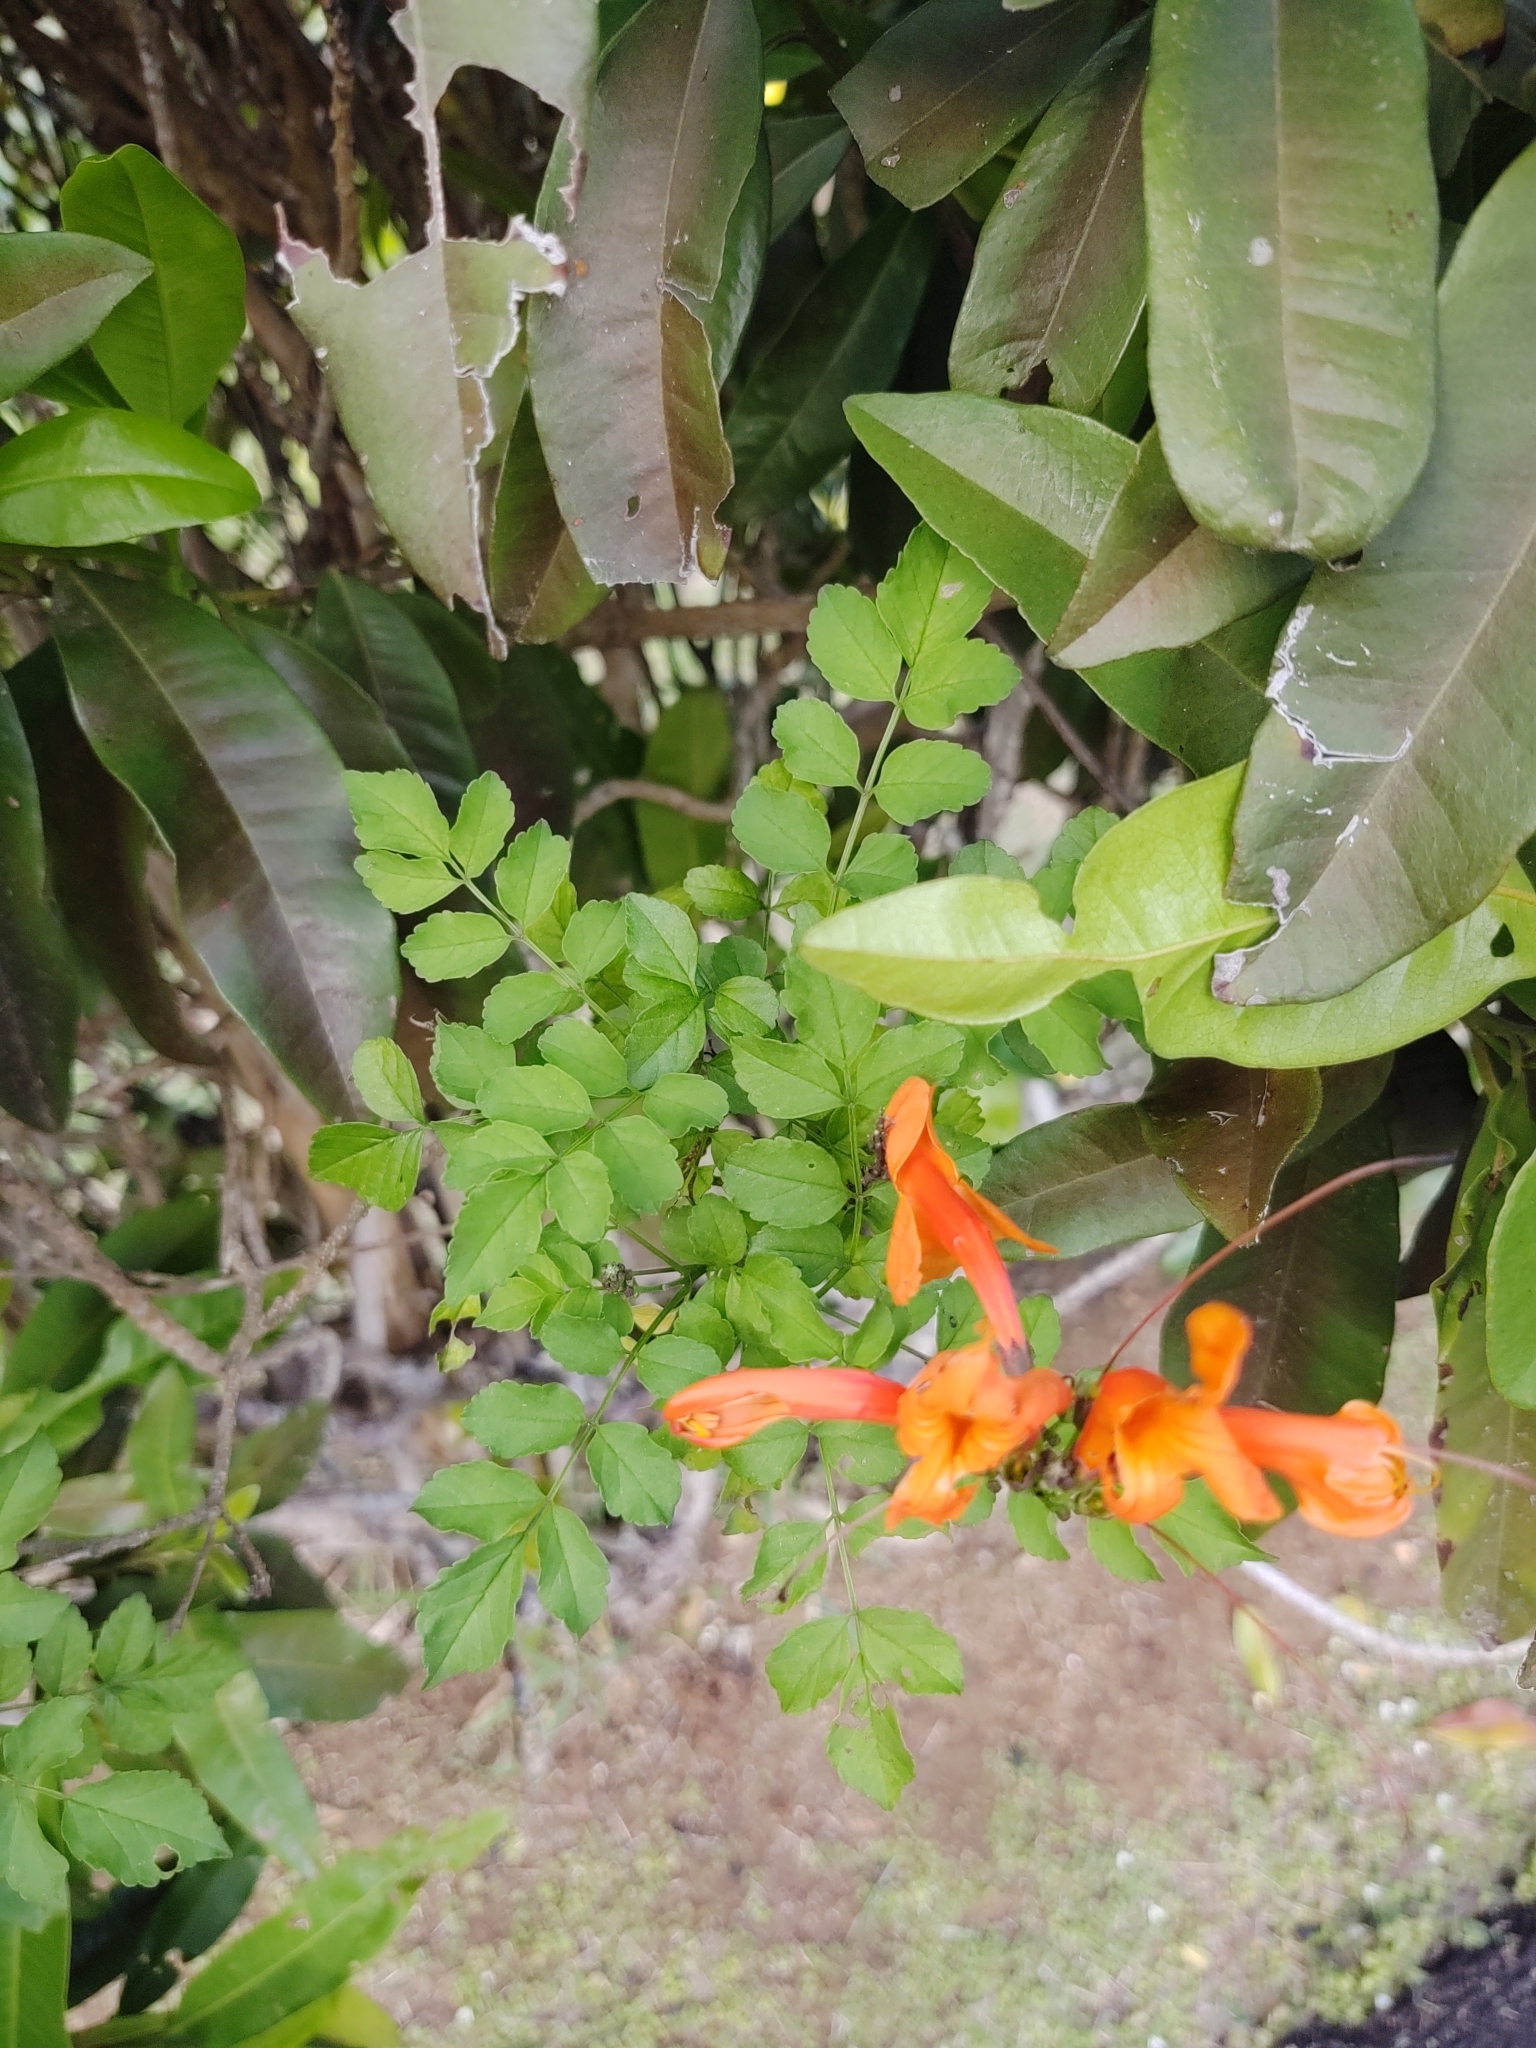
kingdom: Plantae
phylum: Tracheophyta
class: Magnoliopsida
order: Lamiales
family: Bignoniaceae
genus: Tecomaria
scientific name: Tecomaria capensis
